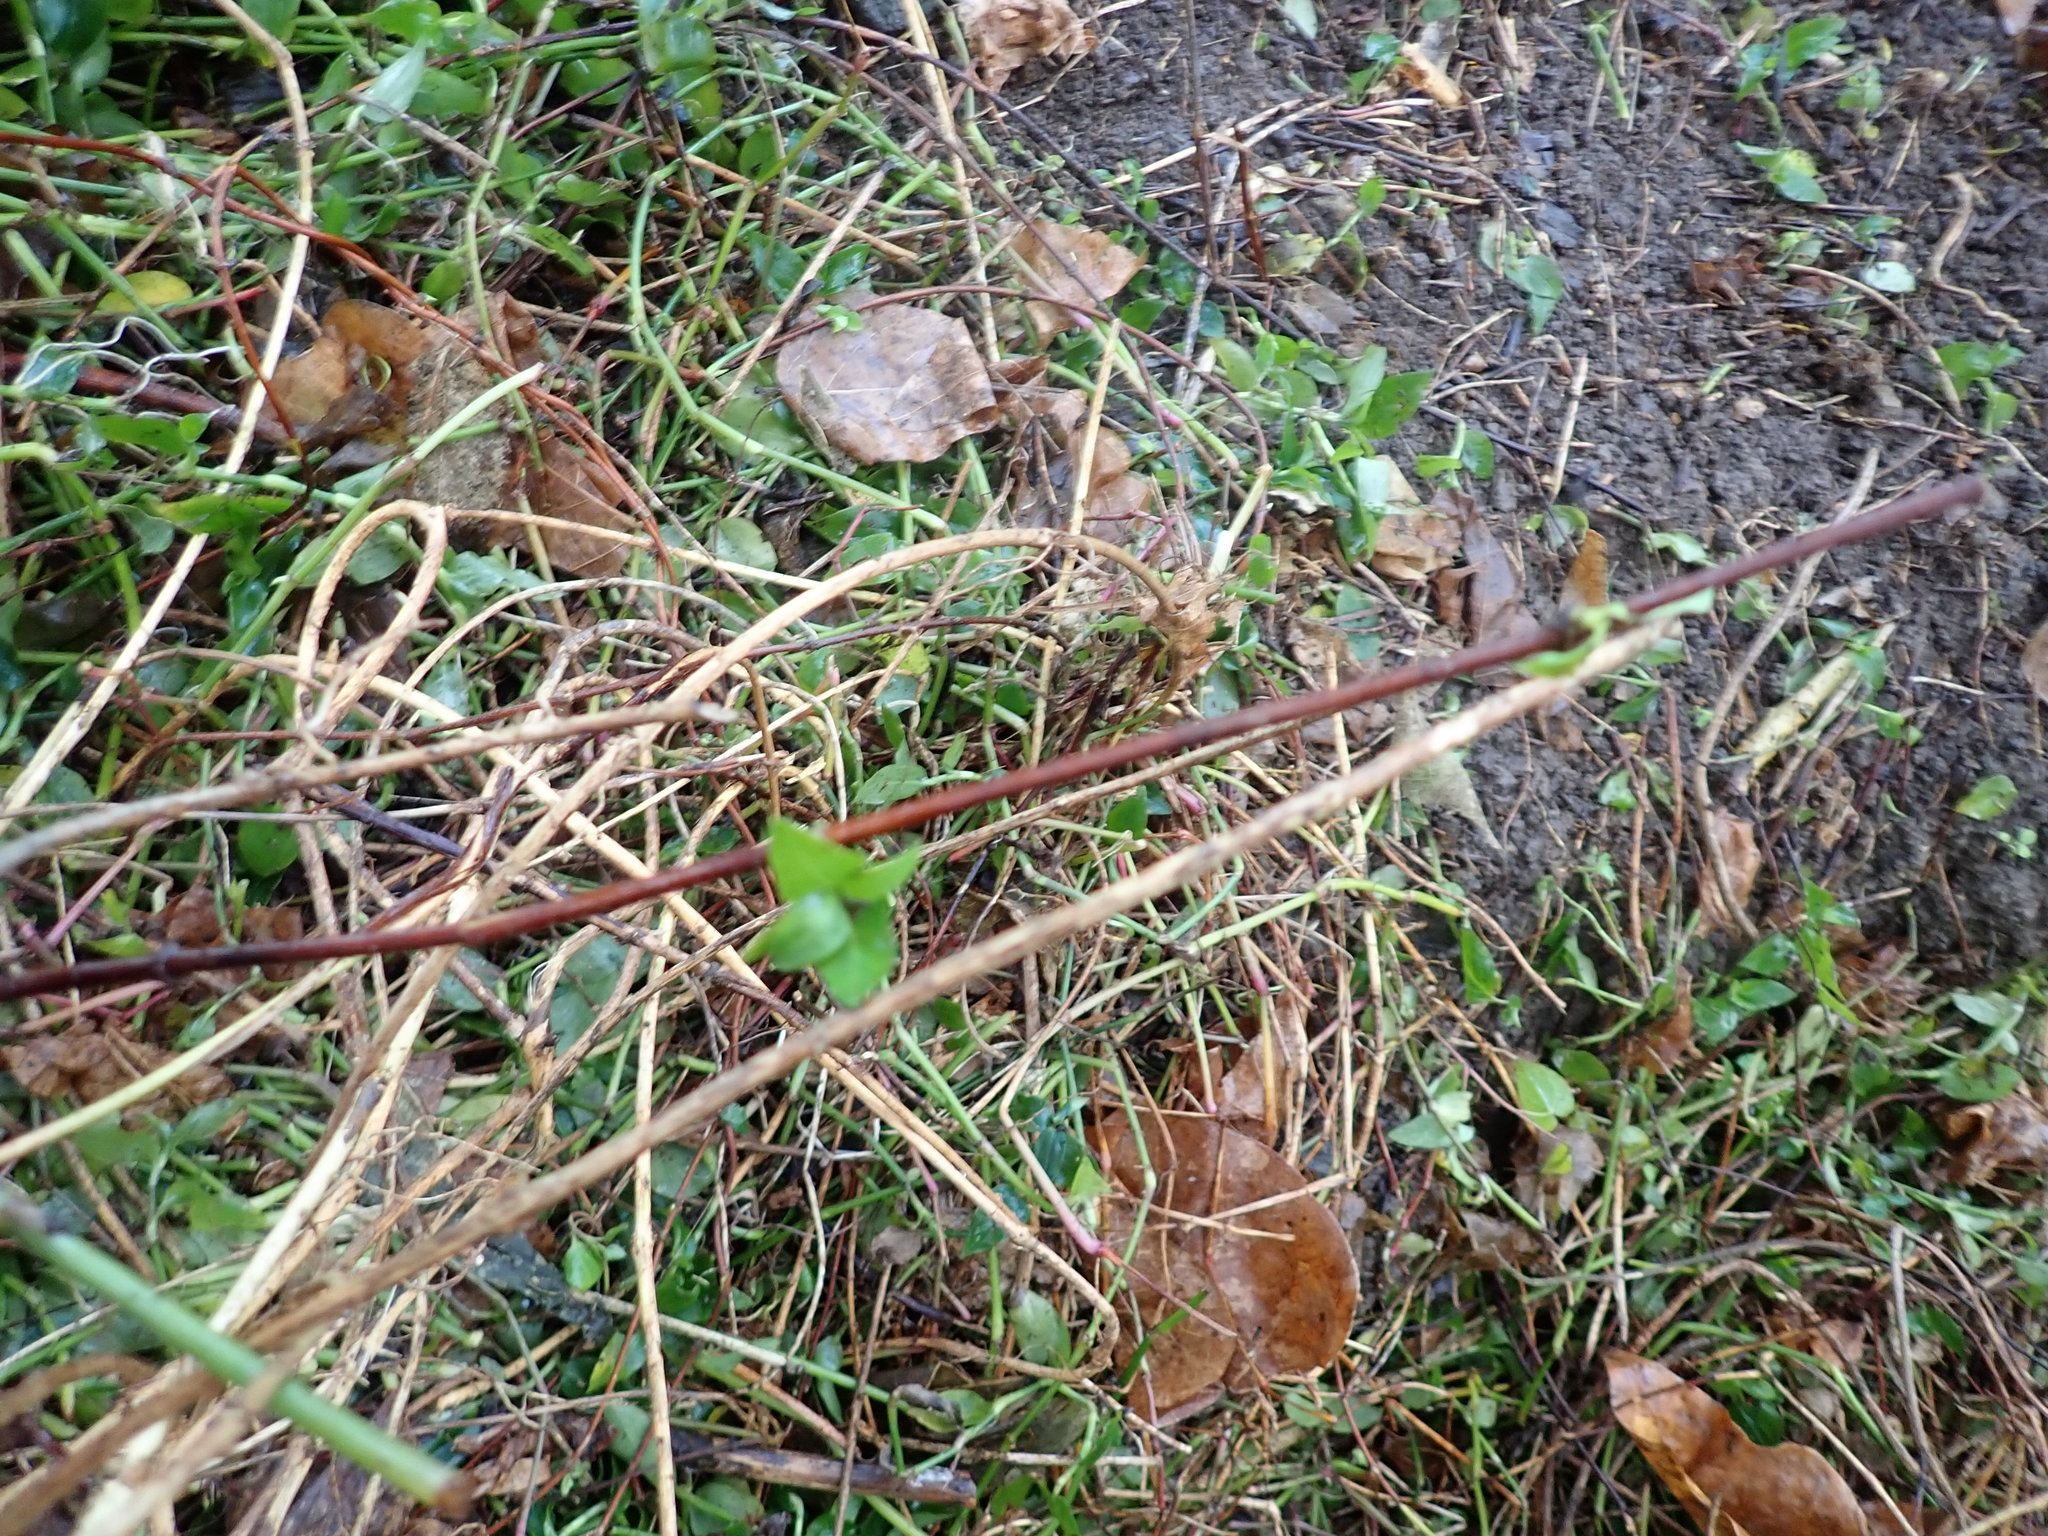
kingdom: Plantae
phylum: Tracheophyta
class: Magnoliopsida
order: Dipsacales
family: Caprifoliaceae
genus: Lonicera
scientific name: Lonicera japonica
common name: Japanese honeysuckle
